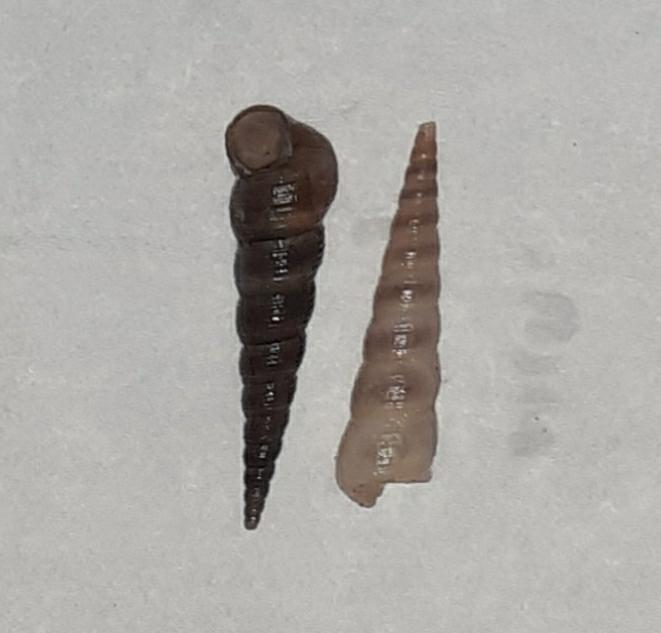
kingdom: Animalia
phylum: Mollusca
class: Gastropoda
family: Turritellidae
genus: Turritellinella
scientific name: Turritellinella tricarinata
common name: Auger shell
